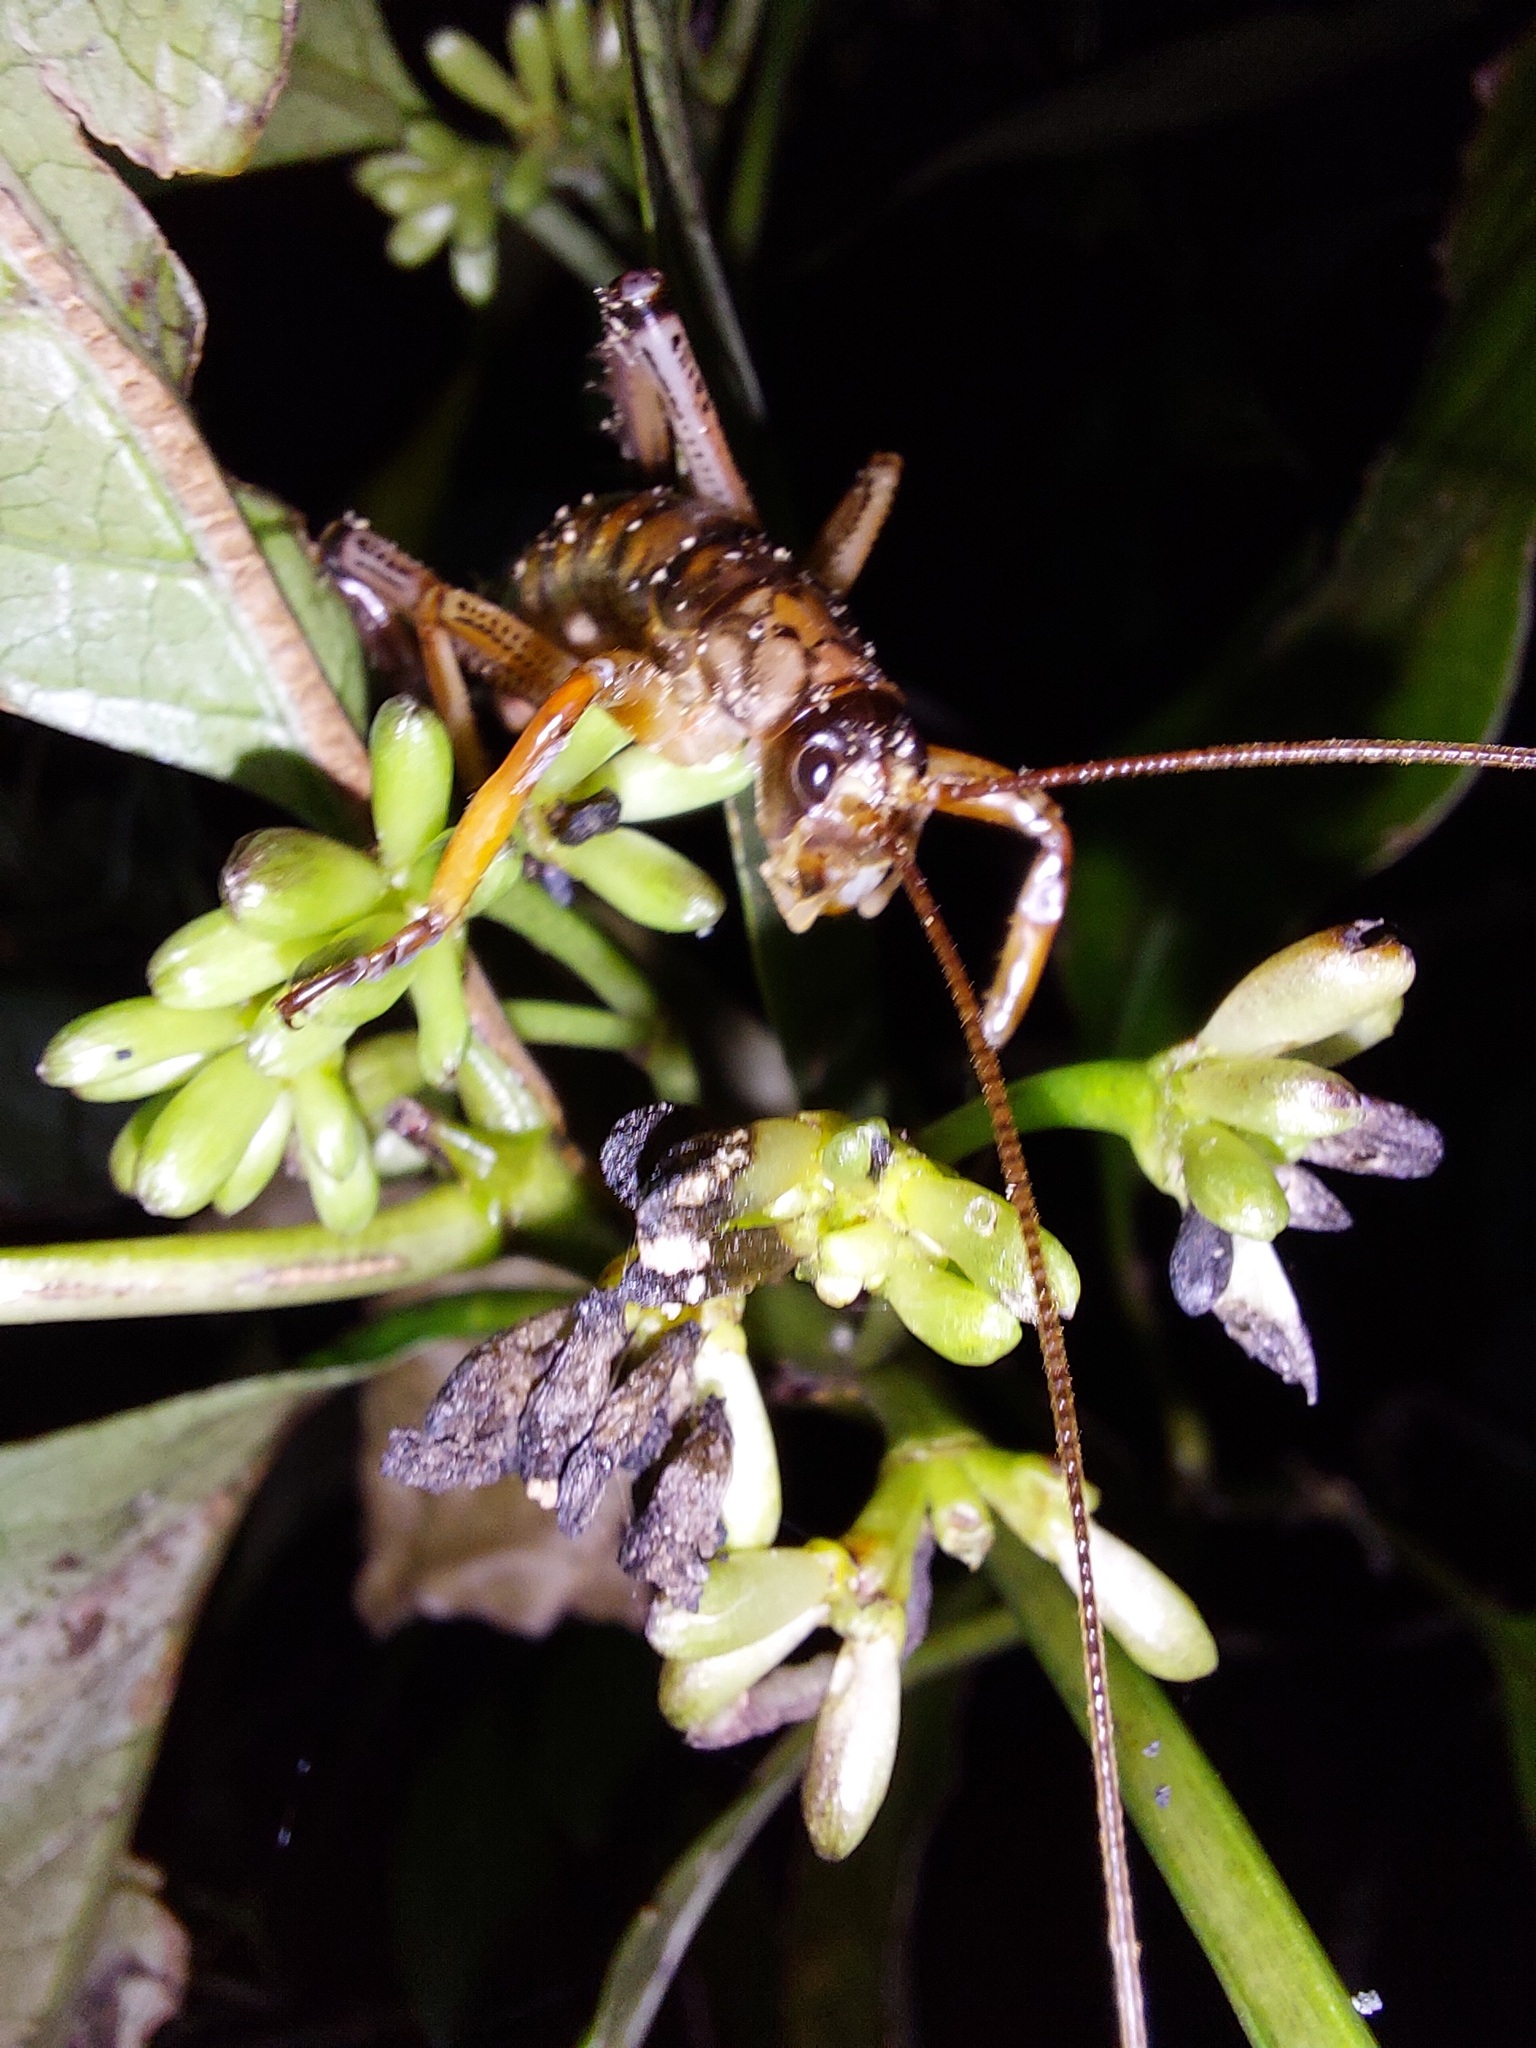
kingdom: Animalia
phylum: Arthropoda
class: Insecta
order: Orthoptera
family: Anostostomatidae
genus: Hemideina
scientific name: Hemideina thoracica
